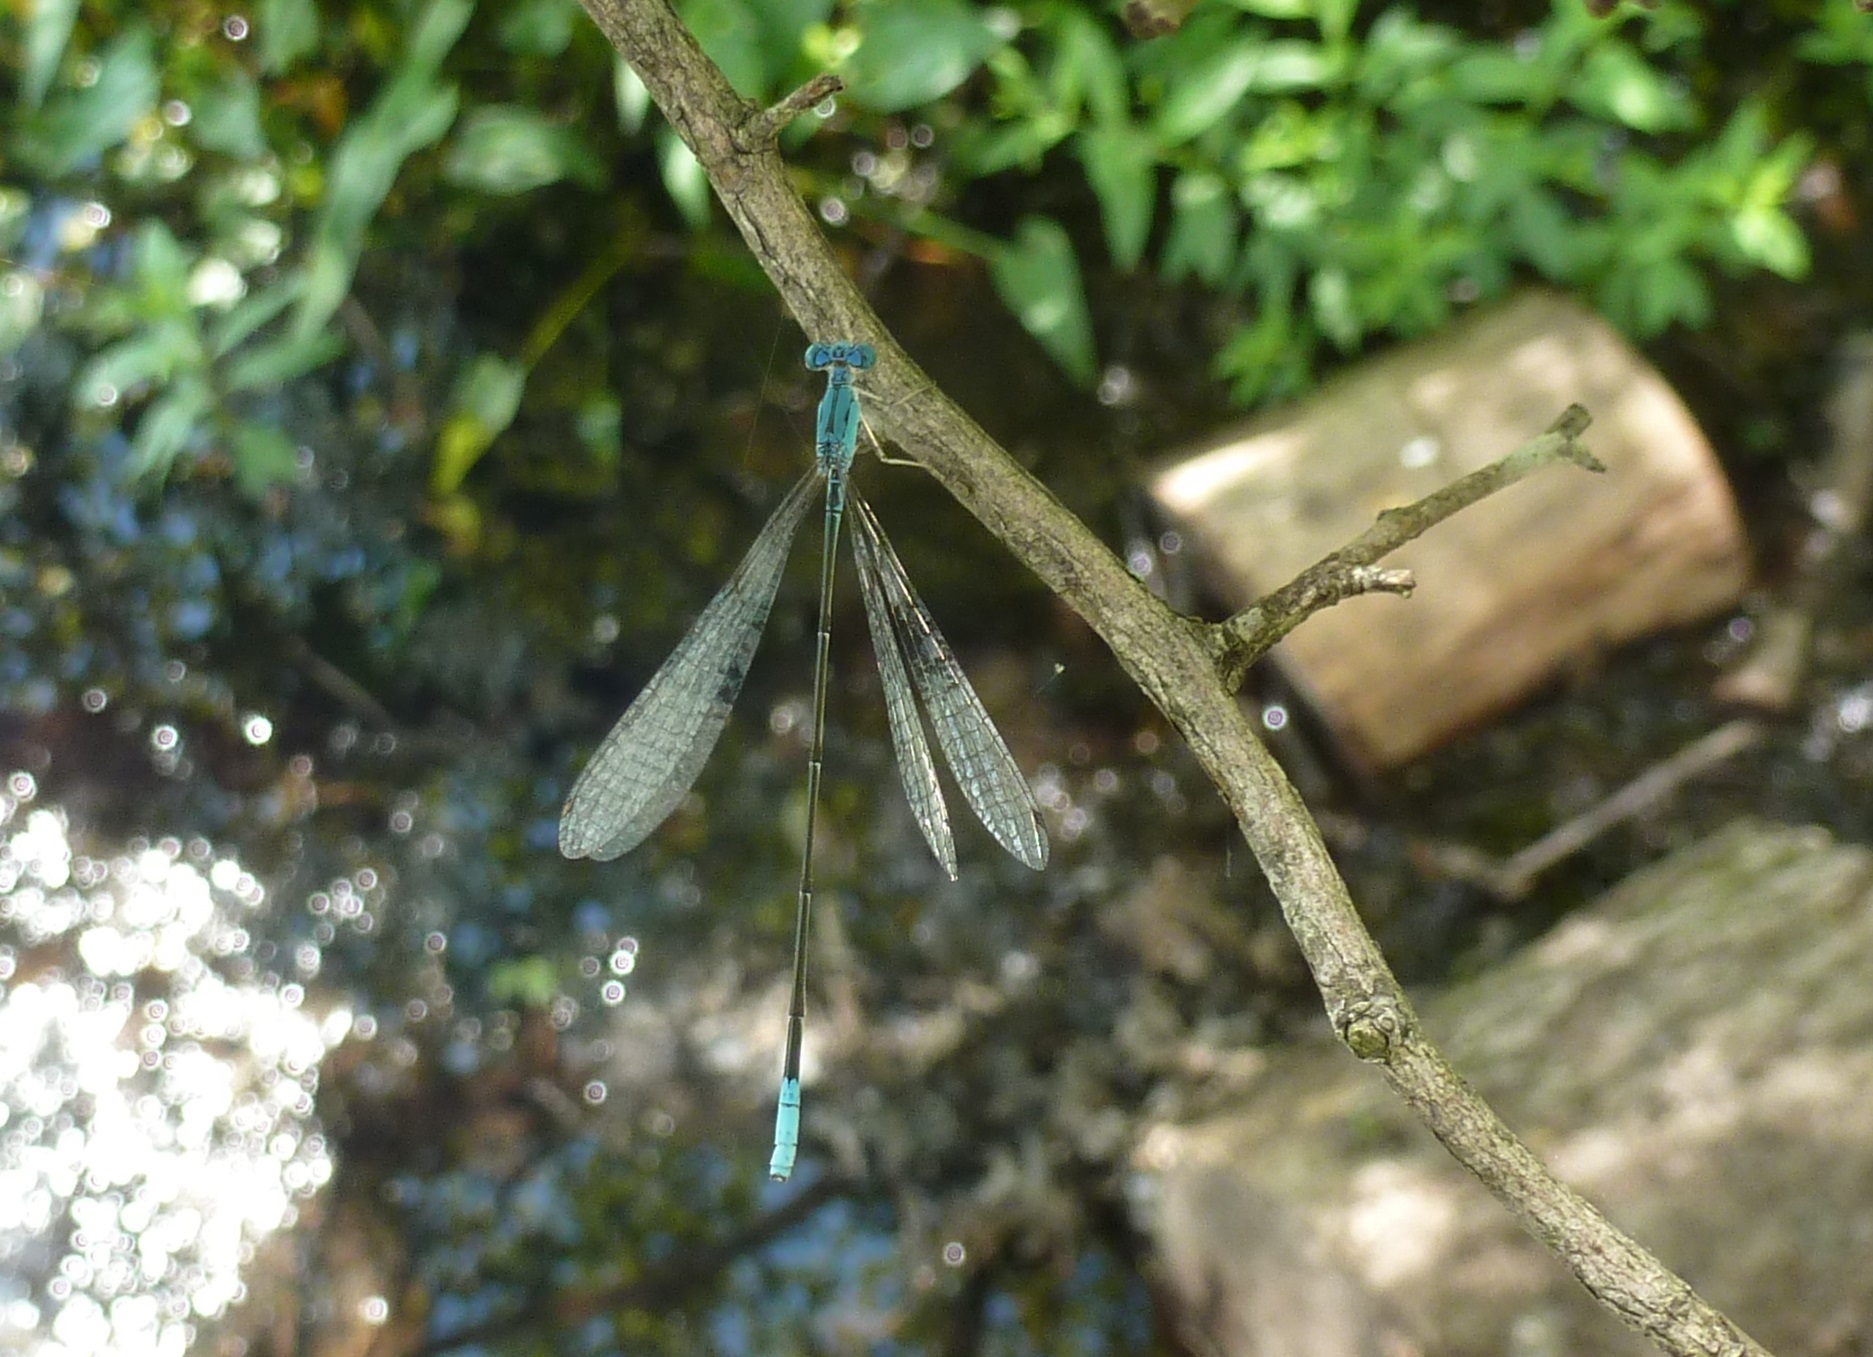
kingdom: Animalia
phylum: Arthropoda
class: Insecta
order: Odonata
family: Coenagrionidae
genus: Enallagma
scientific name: Enallagma daeckii
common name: Attenuated bluet
